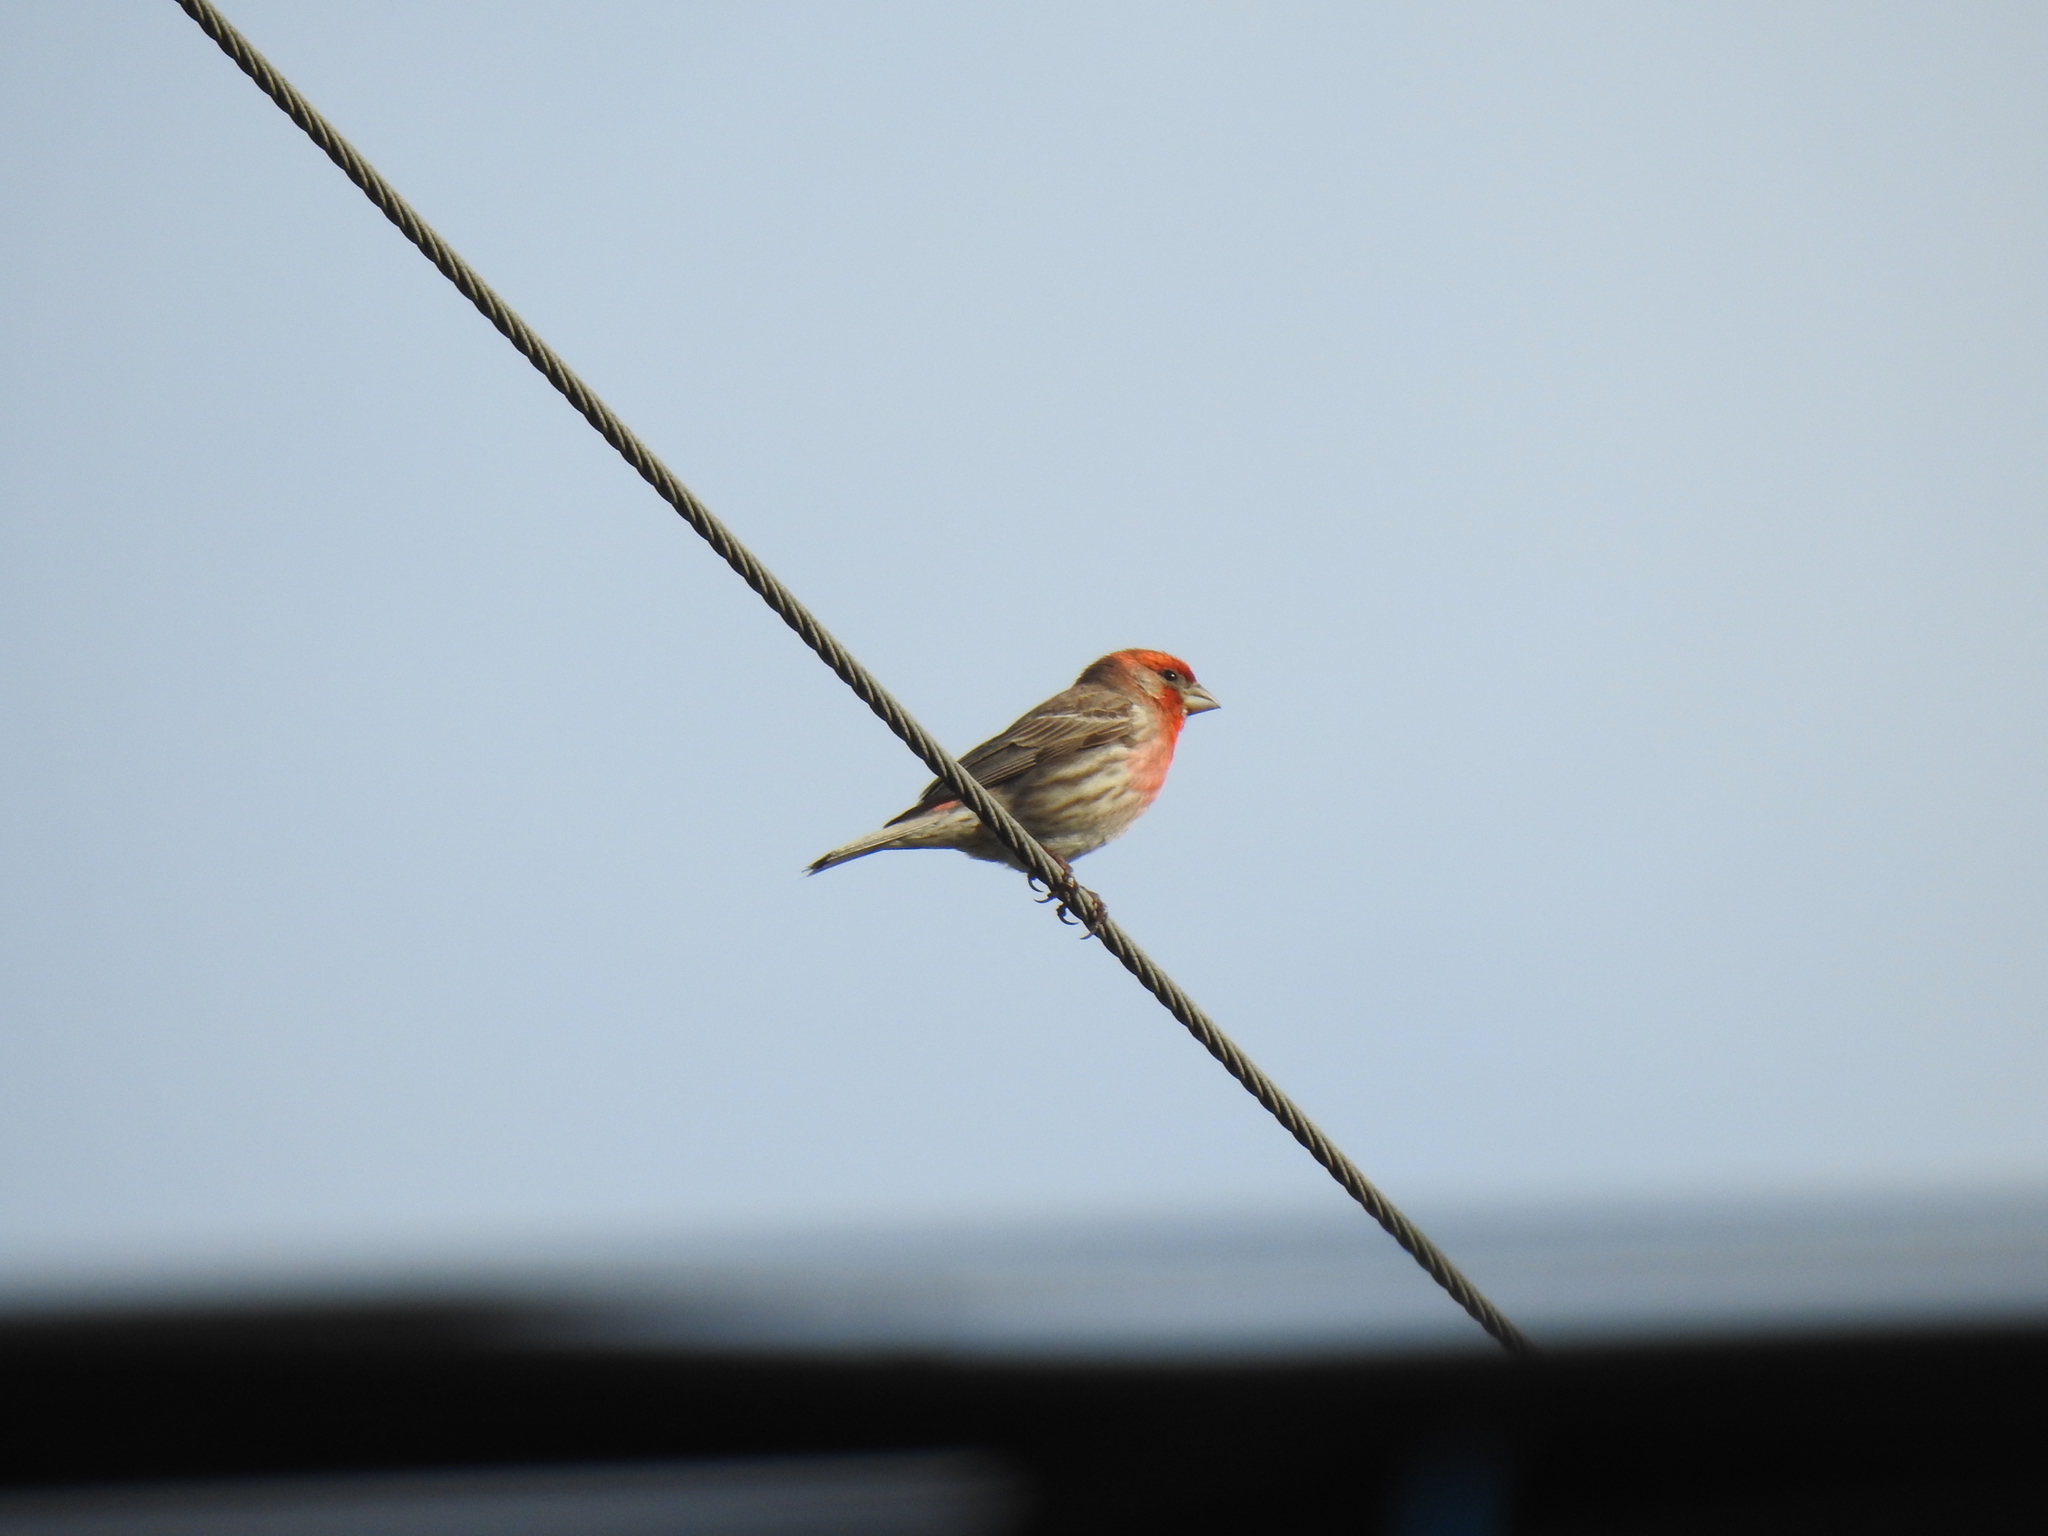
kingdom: Animalia
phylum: Chordata
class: Aves
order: Passeriformes
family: Fringillidae
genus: Haemorhous
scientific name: Haemorhous mexicanus
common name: House finch
